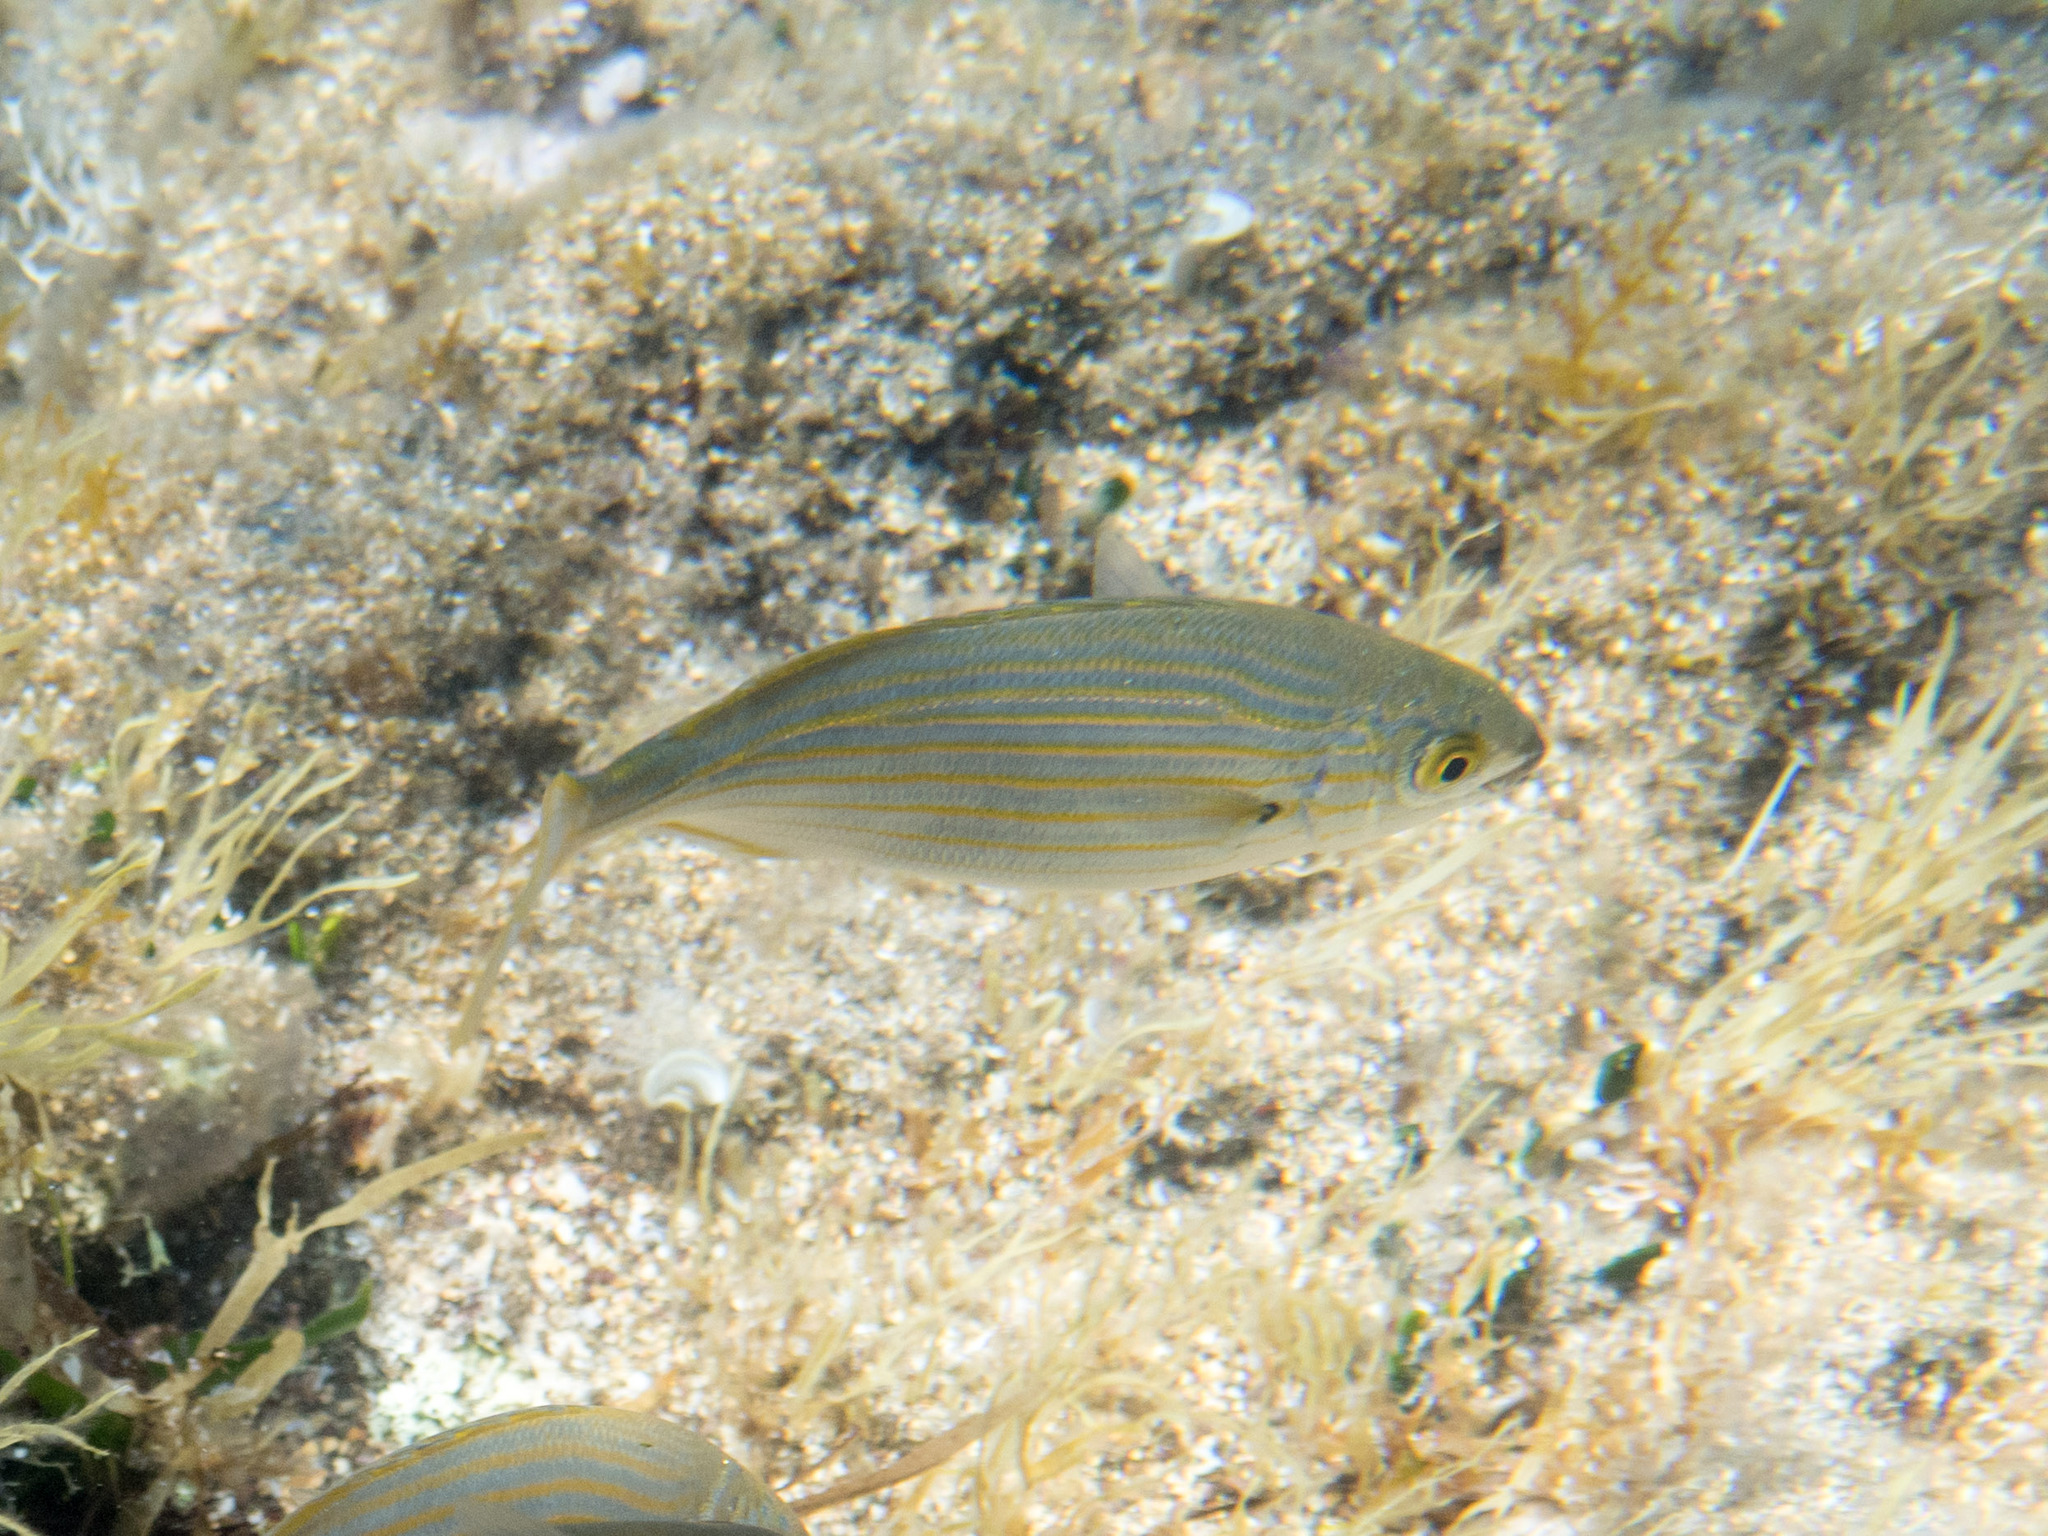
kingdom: Animalia
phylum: Chordata
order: Perciformes
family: Sparidae
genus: Sarpa
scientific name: Sarpa salpa
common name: Salema
